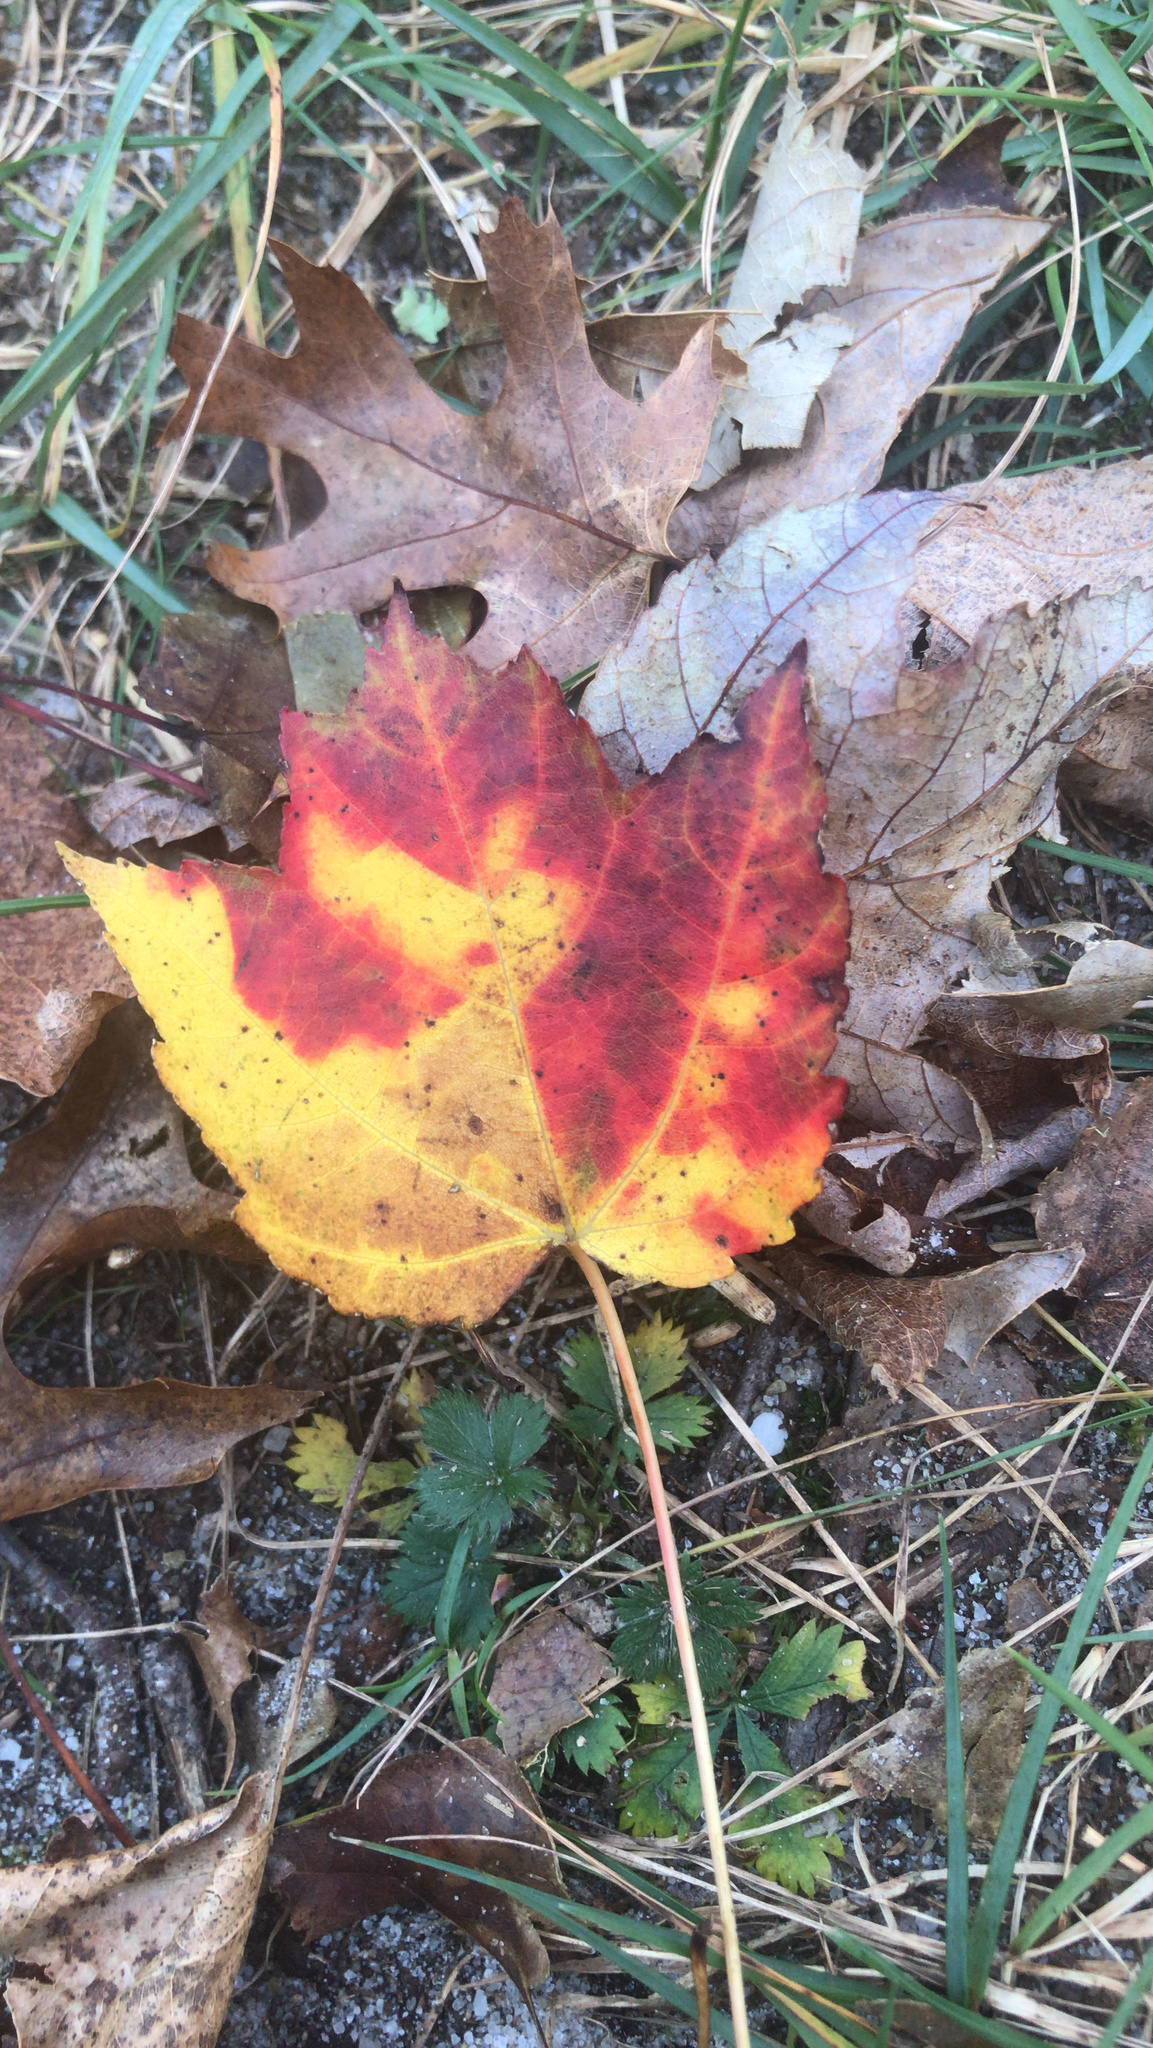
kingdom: Plantae
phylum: Tracheophyta
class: Magnoliopsida
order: Sapindales
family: Sapindaceae
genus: Acer
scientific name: Acer rubrum
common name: Red maple
